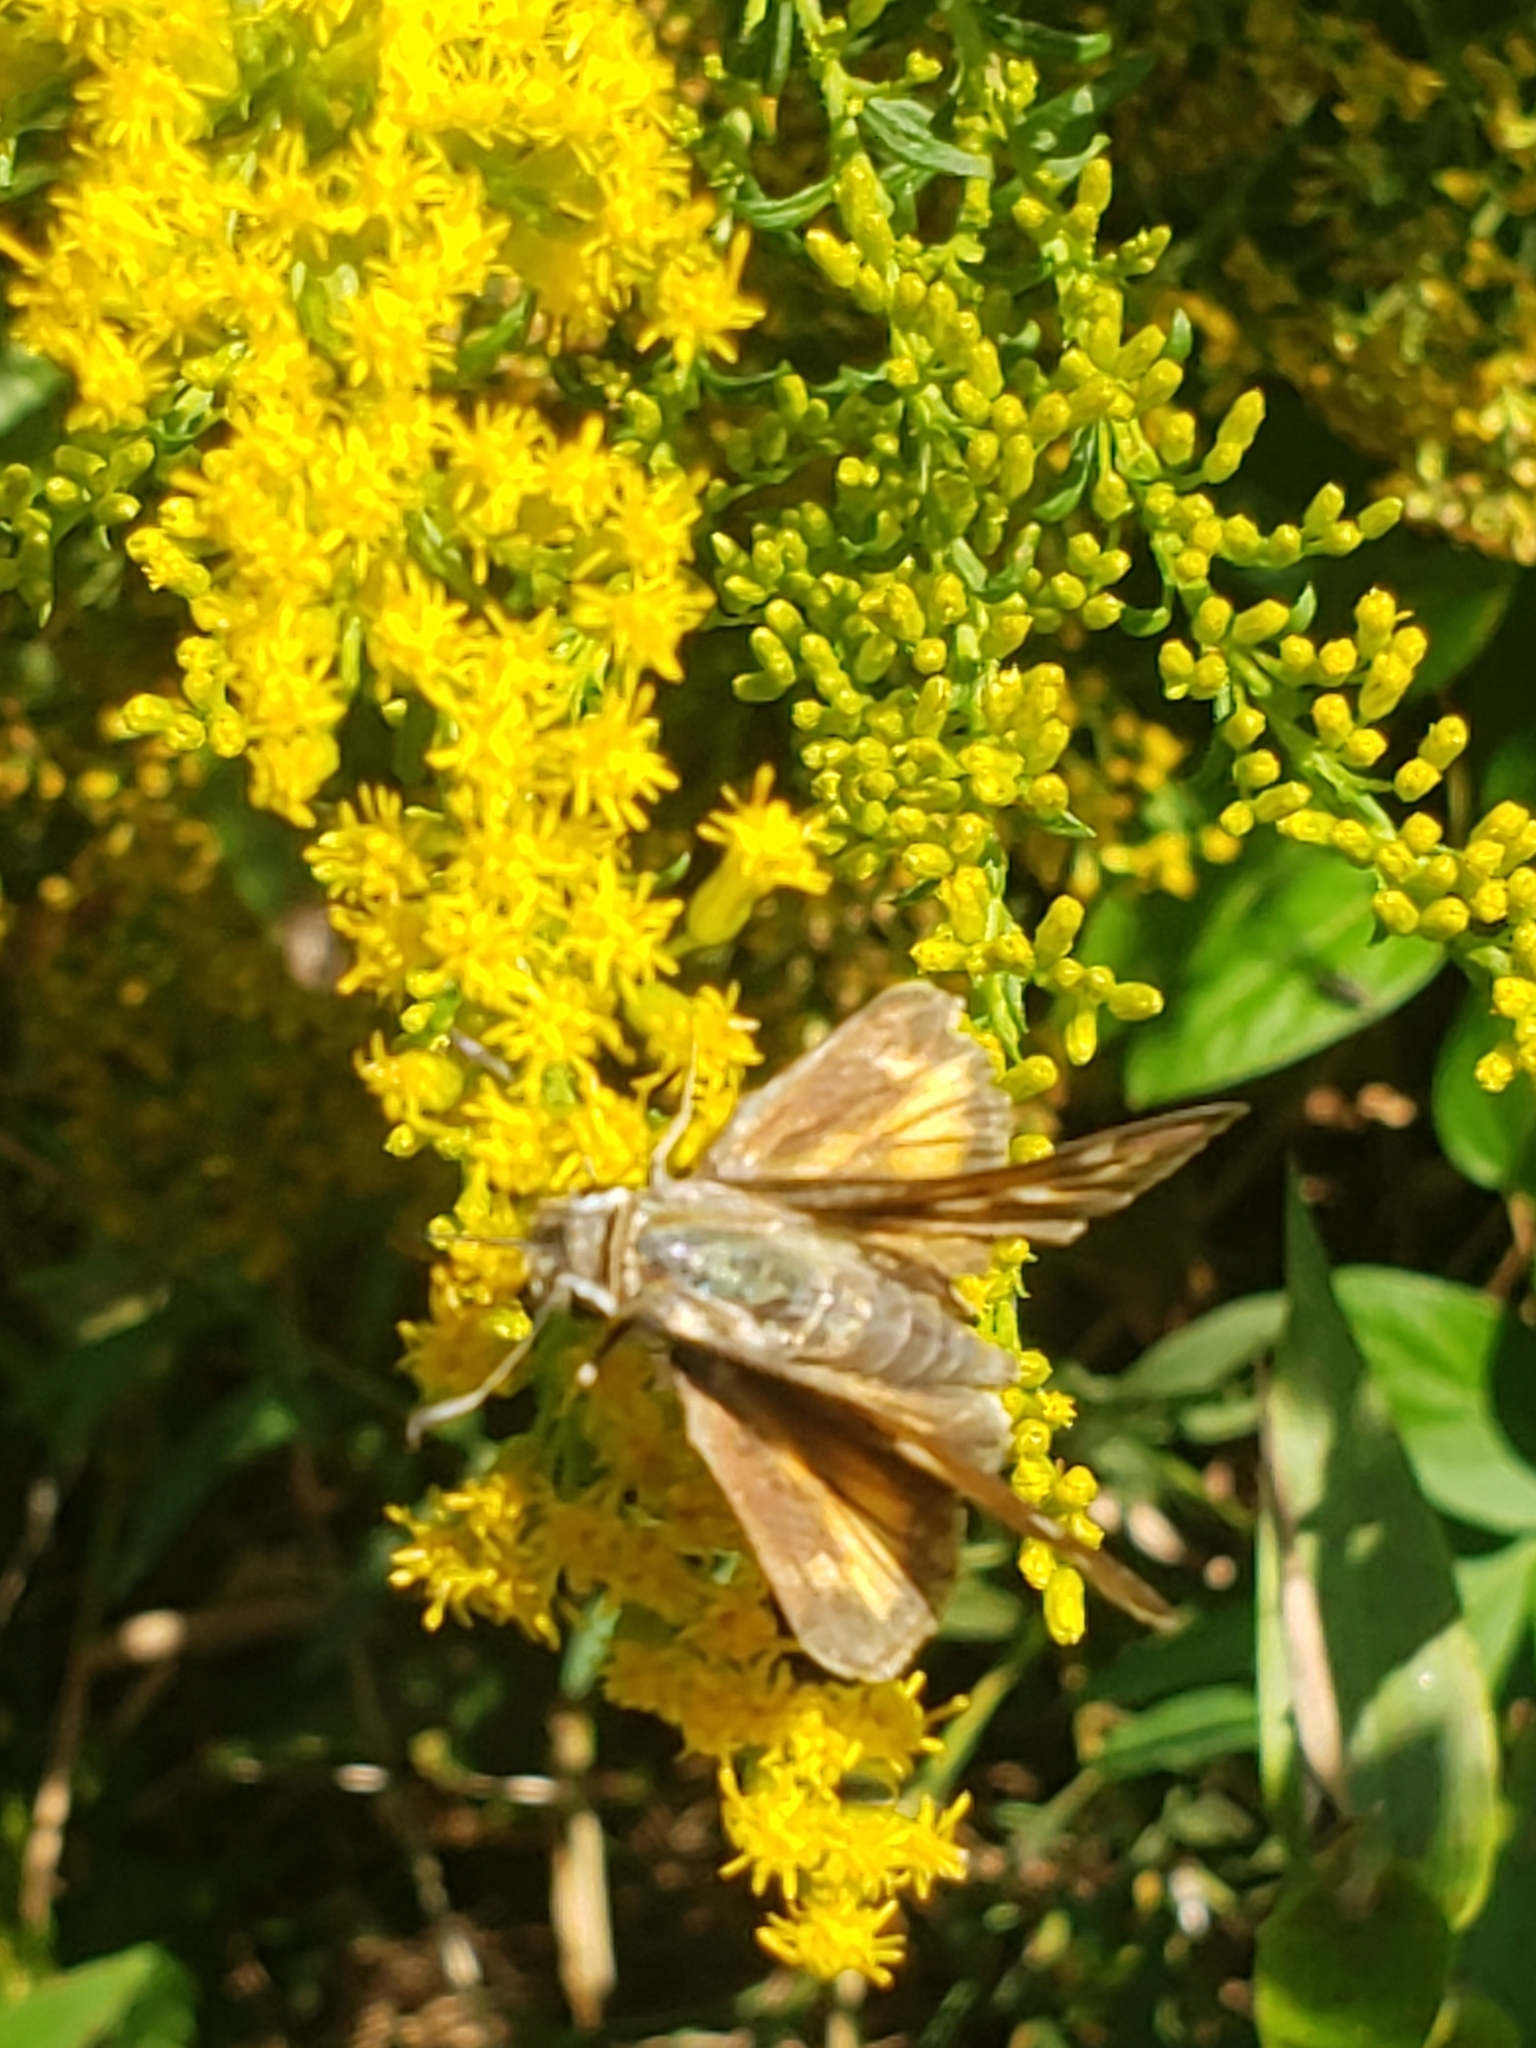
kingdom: Animalia
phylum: Arthropoda
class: Insecta
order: Lepidoptera
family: Hesperiidae
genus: Atalopedes
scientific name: Atalopedes
